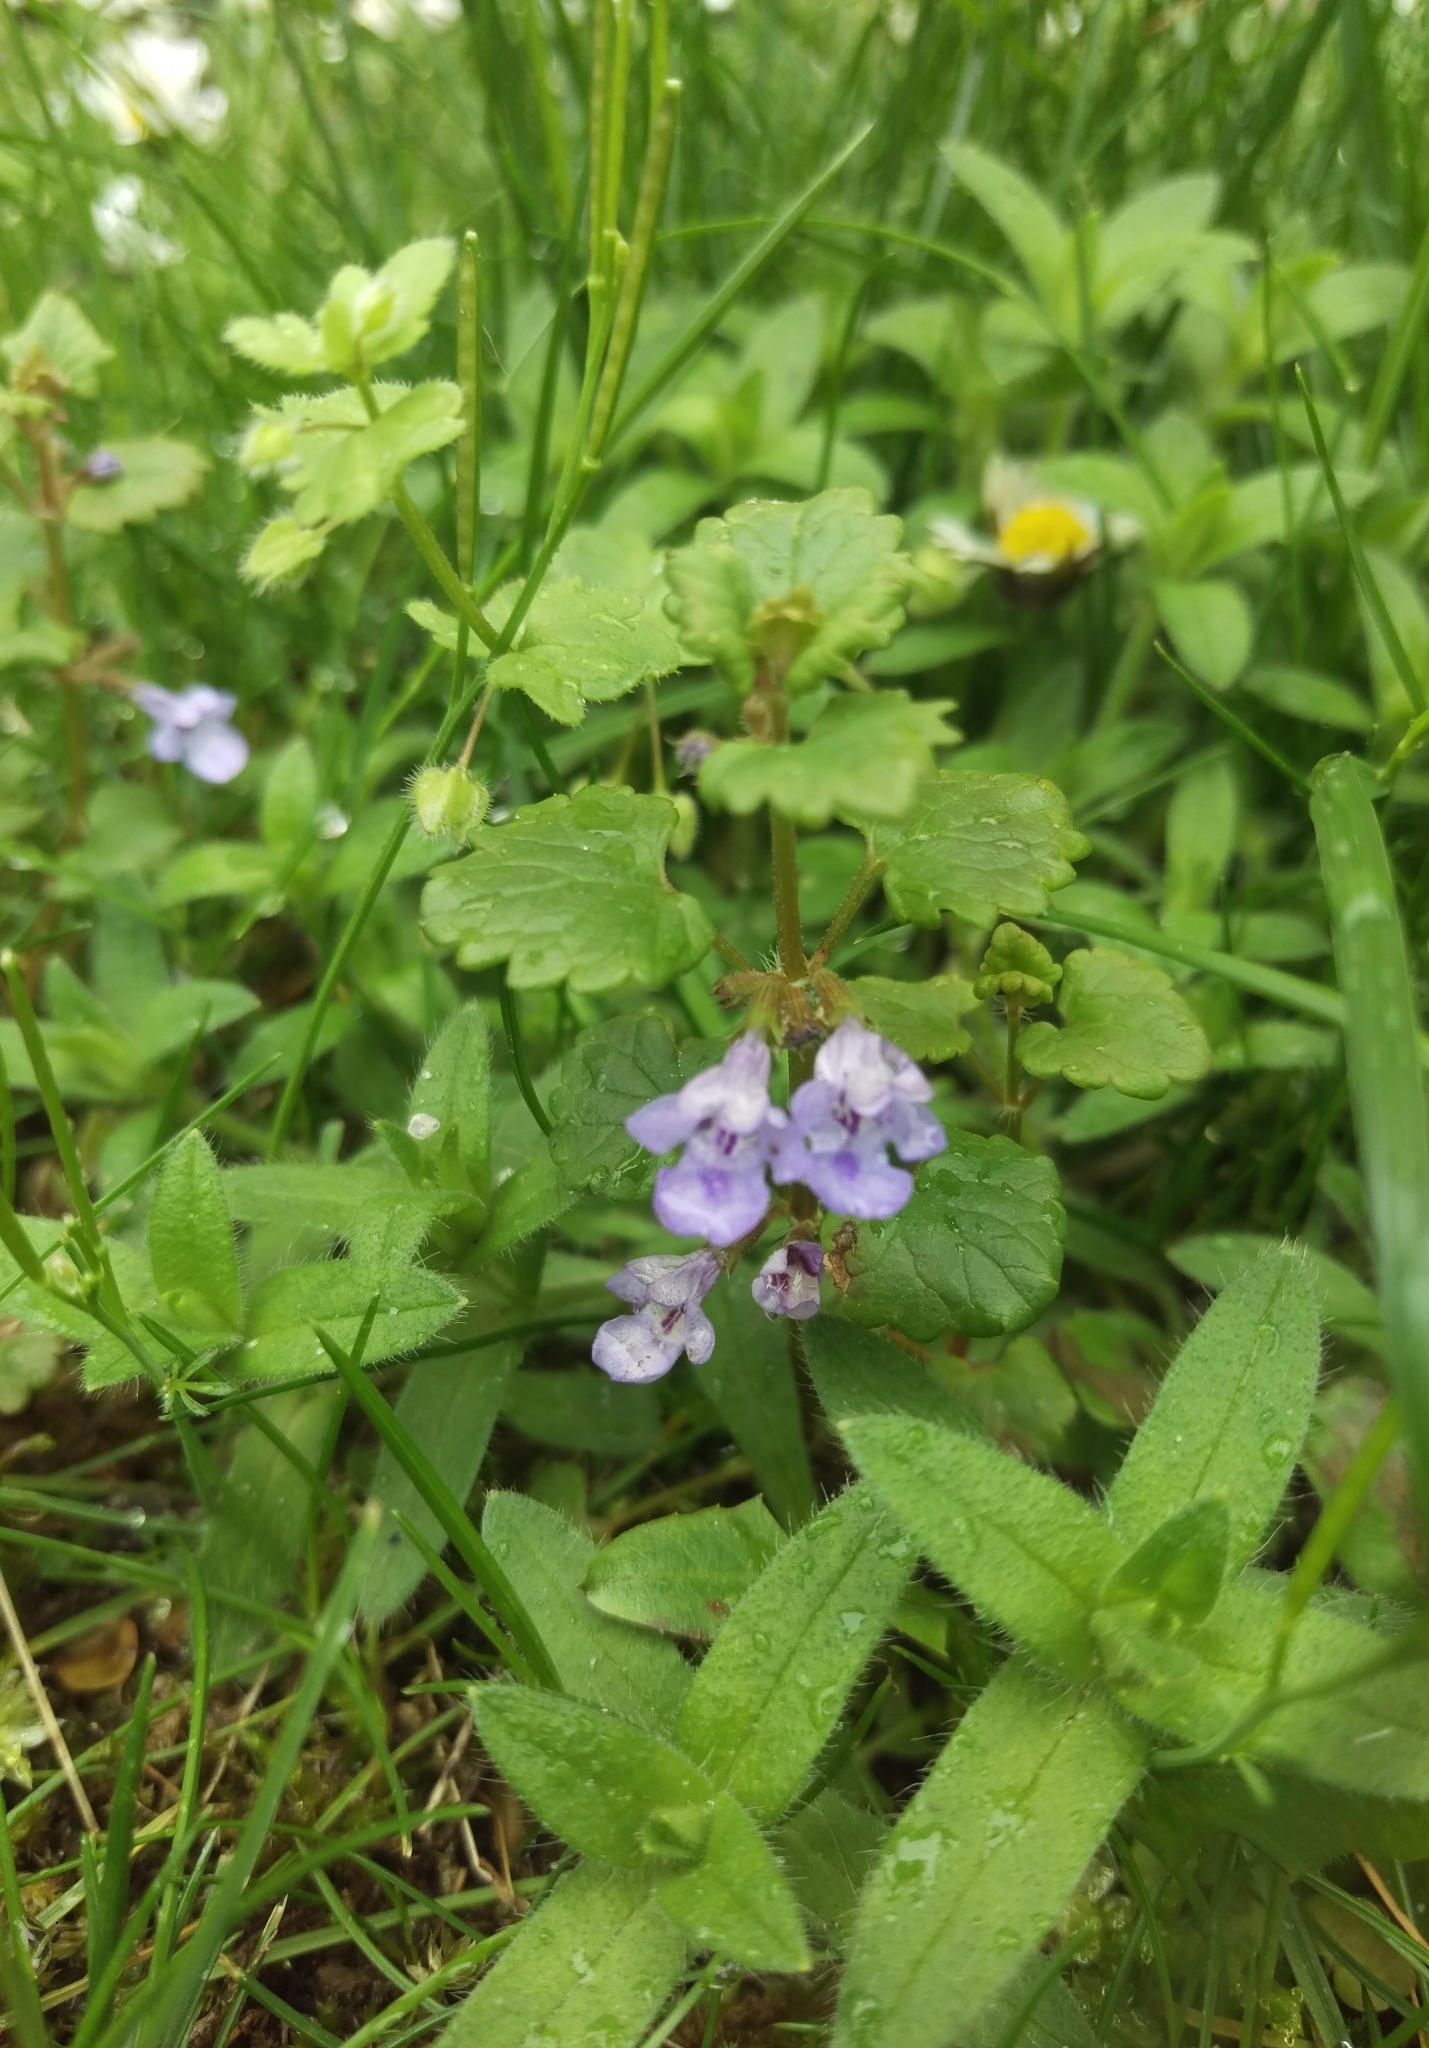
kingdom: Plantae
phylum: Tracheophyta
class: Magnoliopsida
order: Lamiales
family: Lamiaceae
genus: Glechoma
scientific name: Glechoma hederacea
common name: Ground ivy
